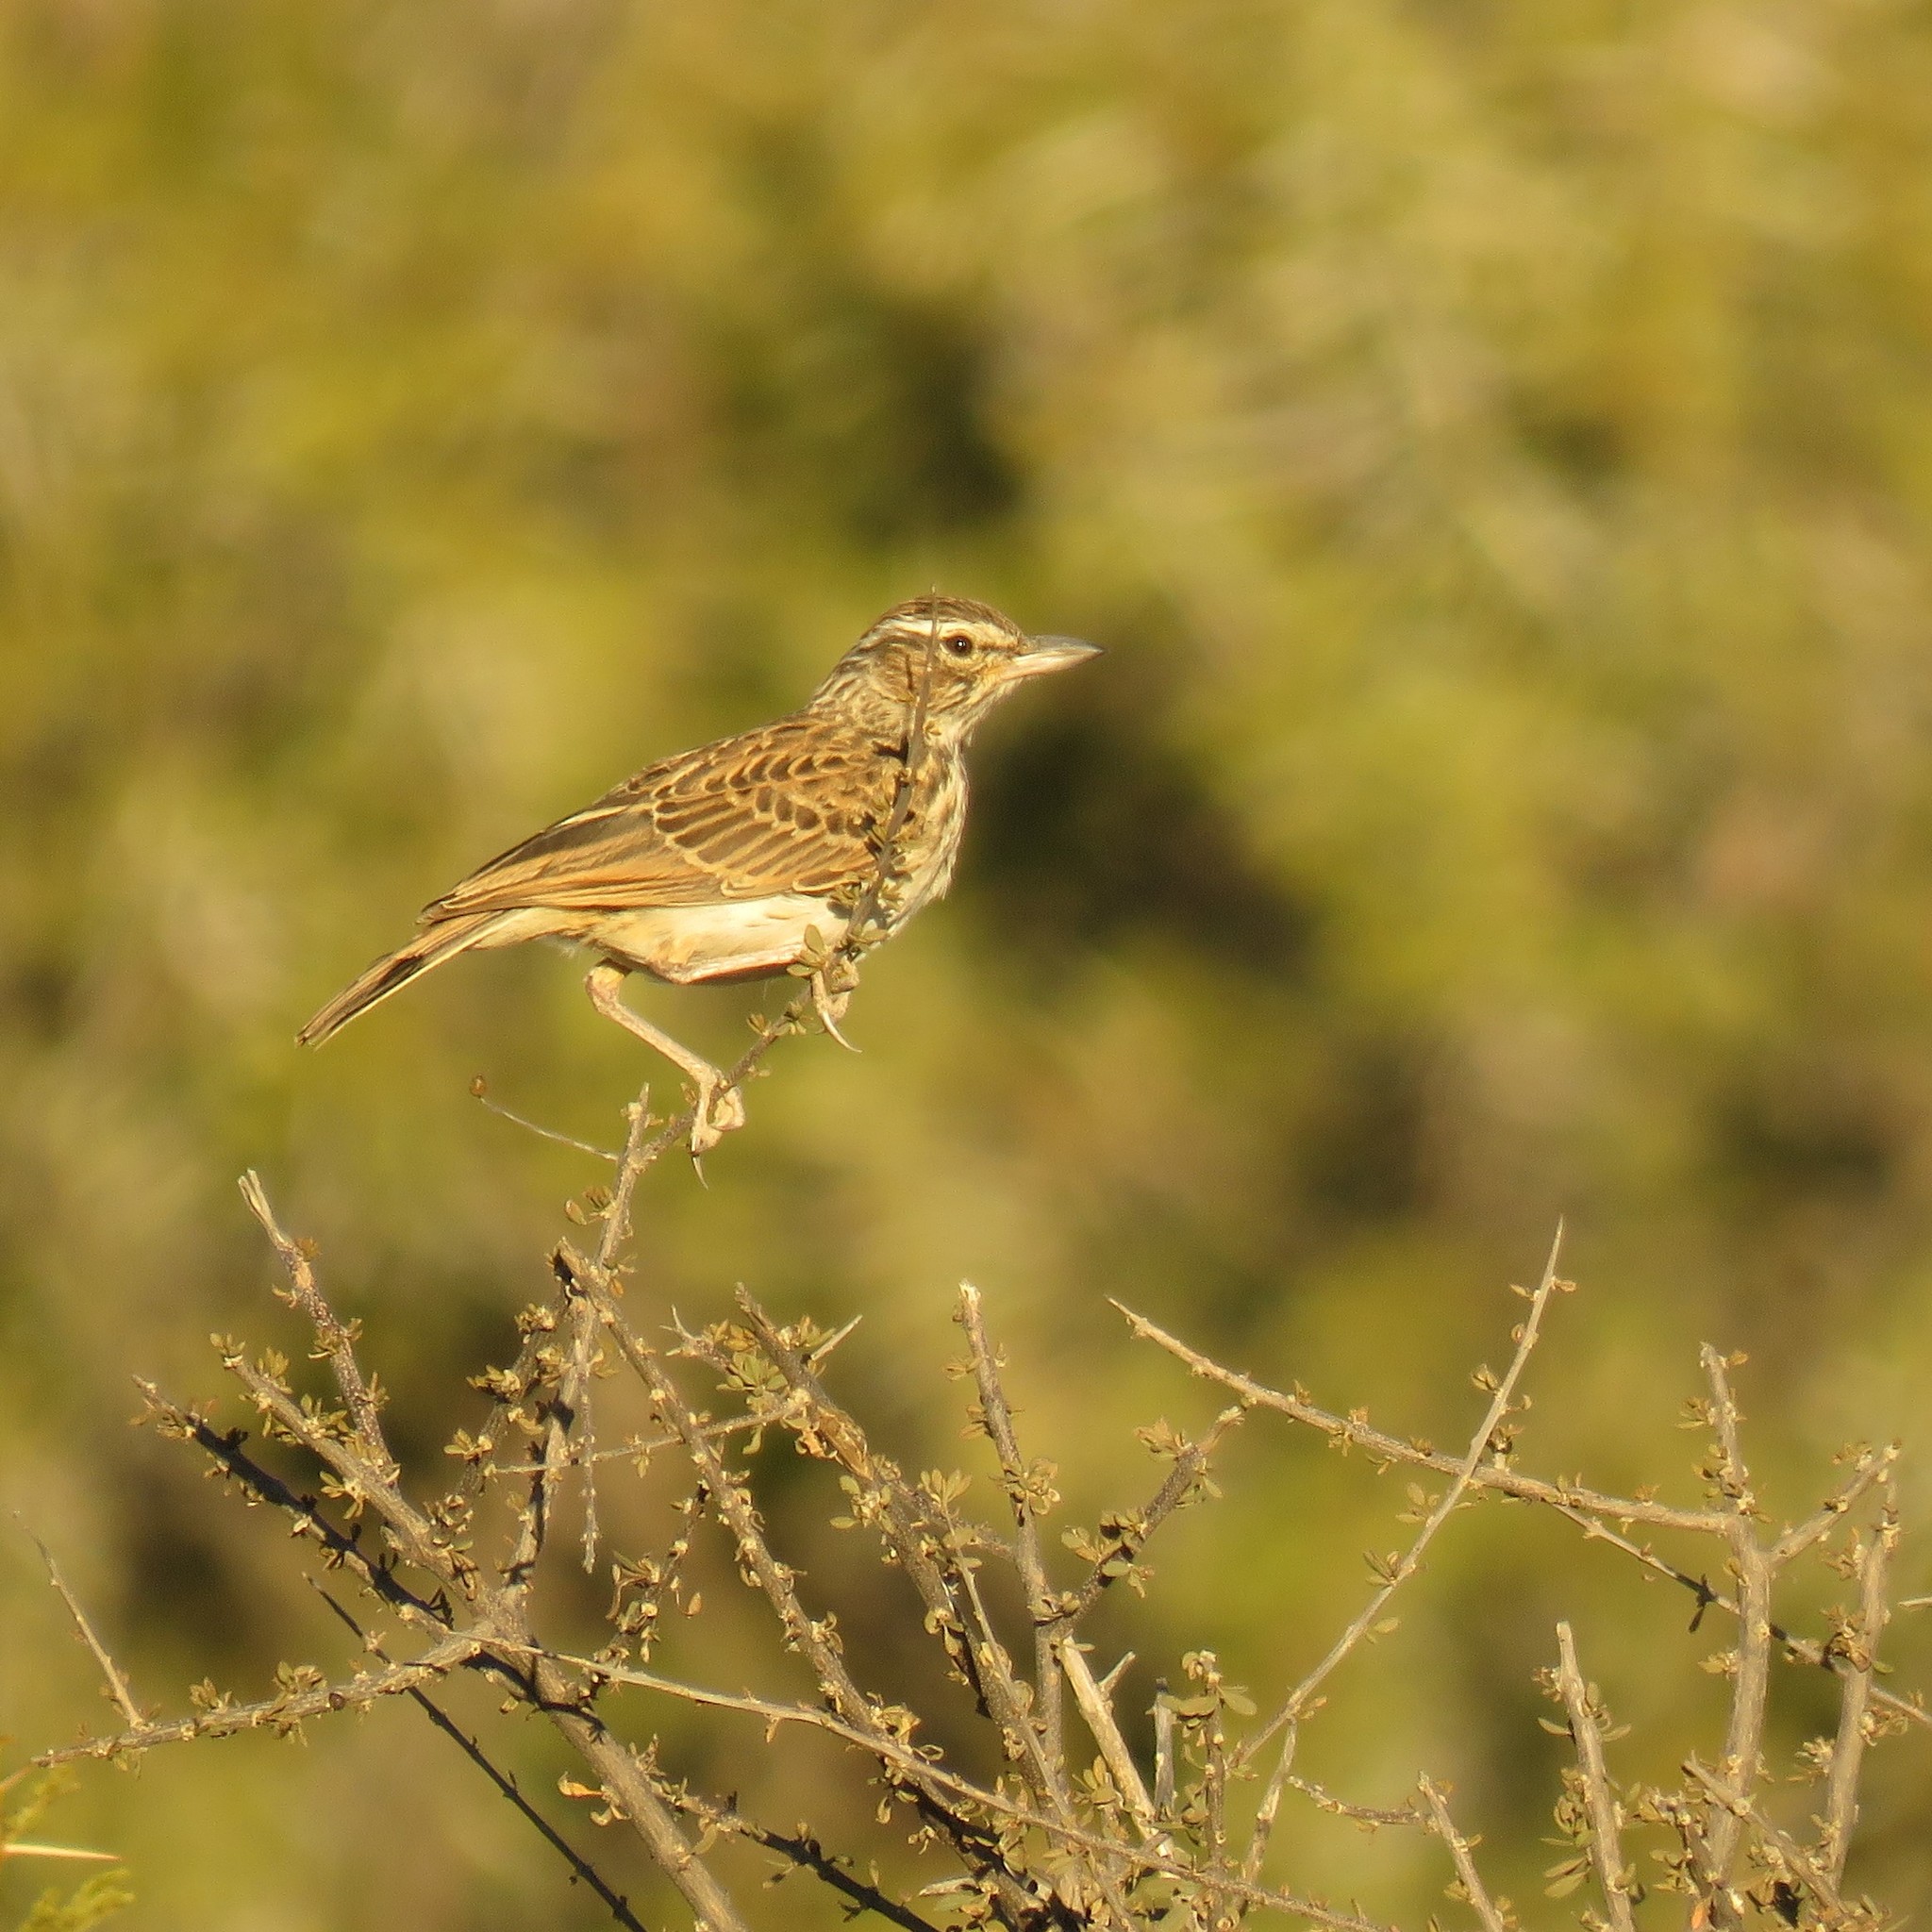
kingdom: Animalia
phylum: Chordata
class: Aves
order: Passeriformes
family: Alaudidae
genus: Calendulauda
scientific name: Calendulauda sabota
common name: Sabota lark
